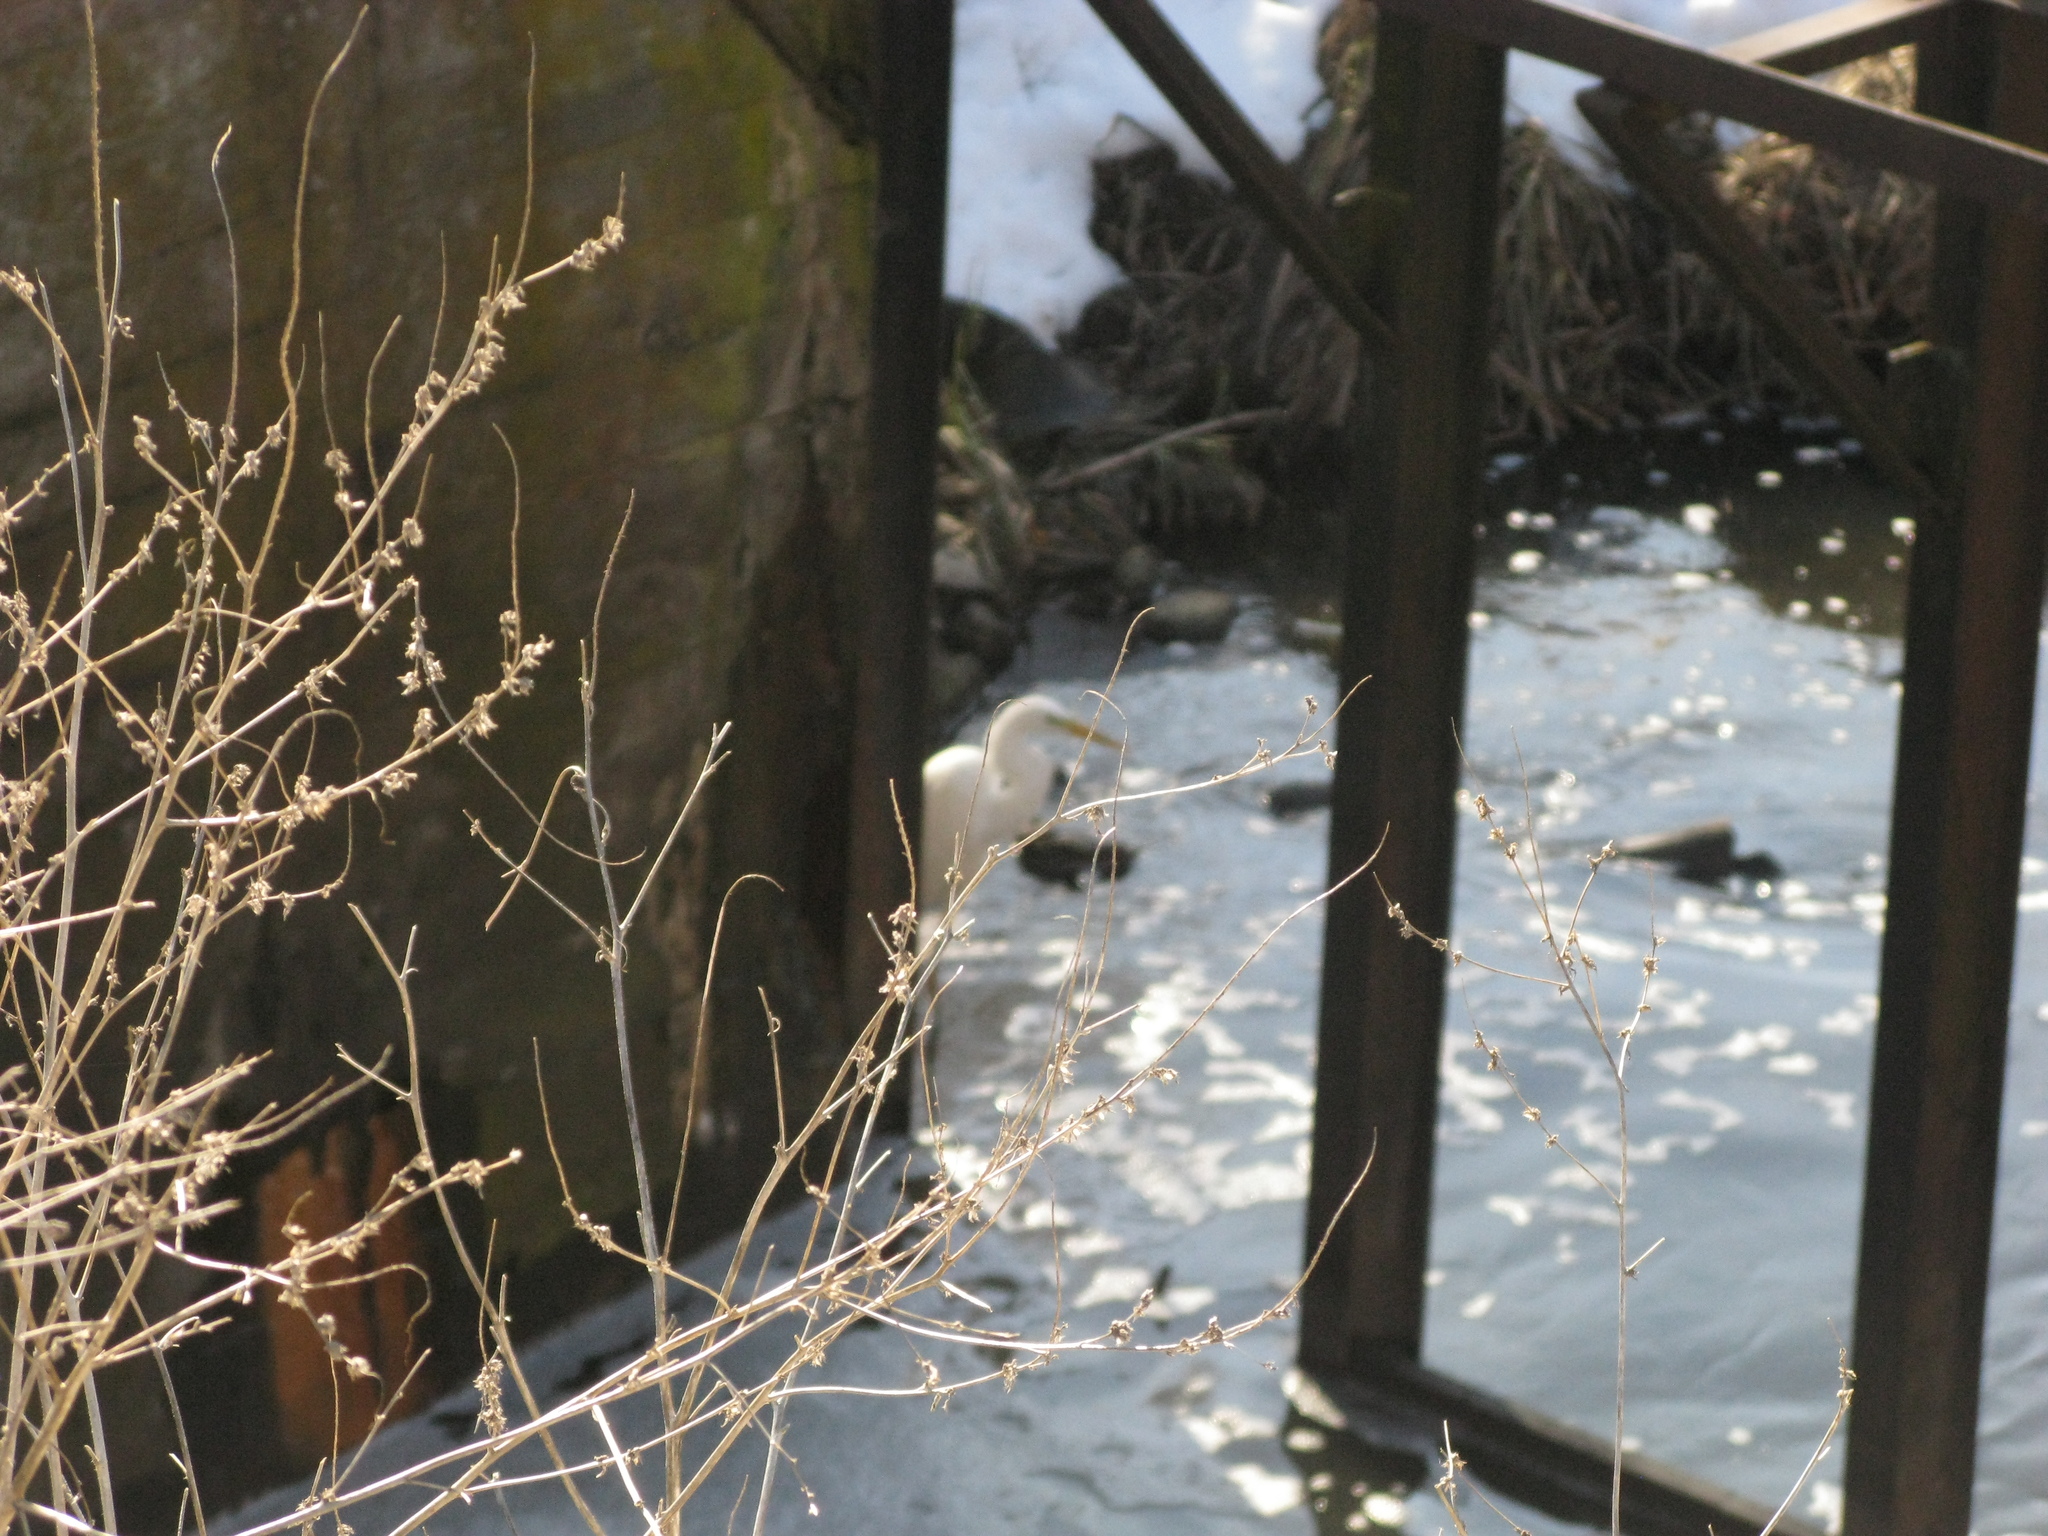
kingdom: Animalia
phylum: Chordata
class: Aves
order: Pelecaniformes
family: Ardeidae
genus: Ardea
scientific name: Ardea alba
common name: Great egret
